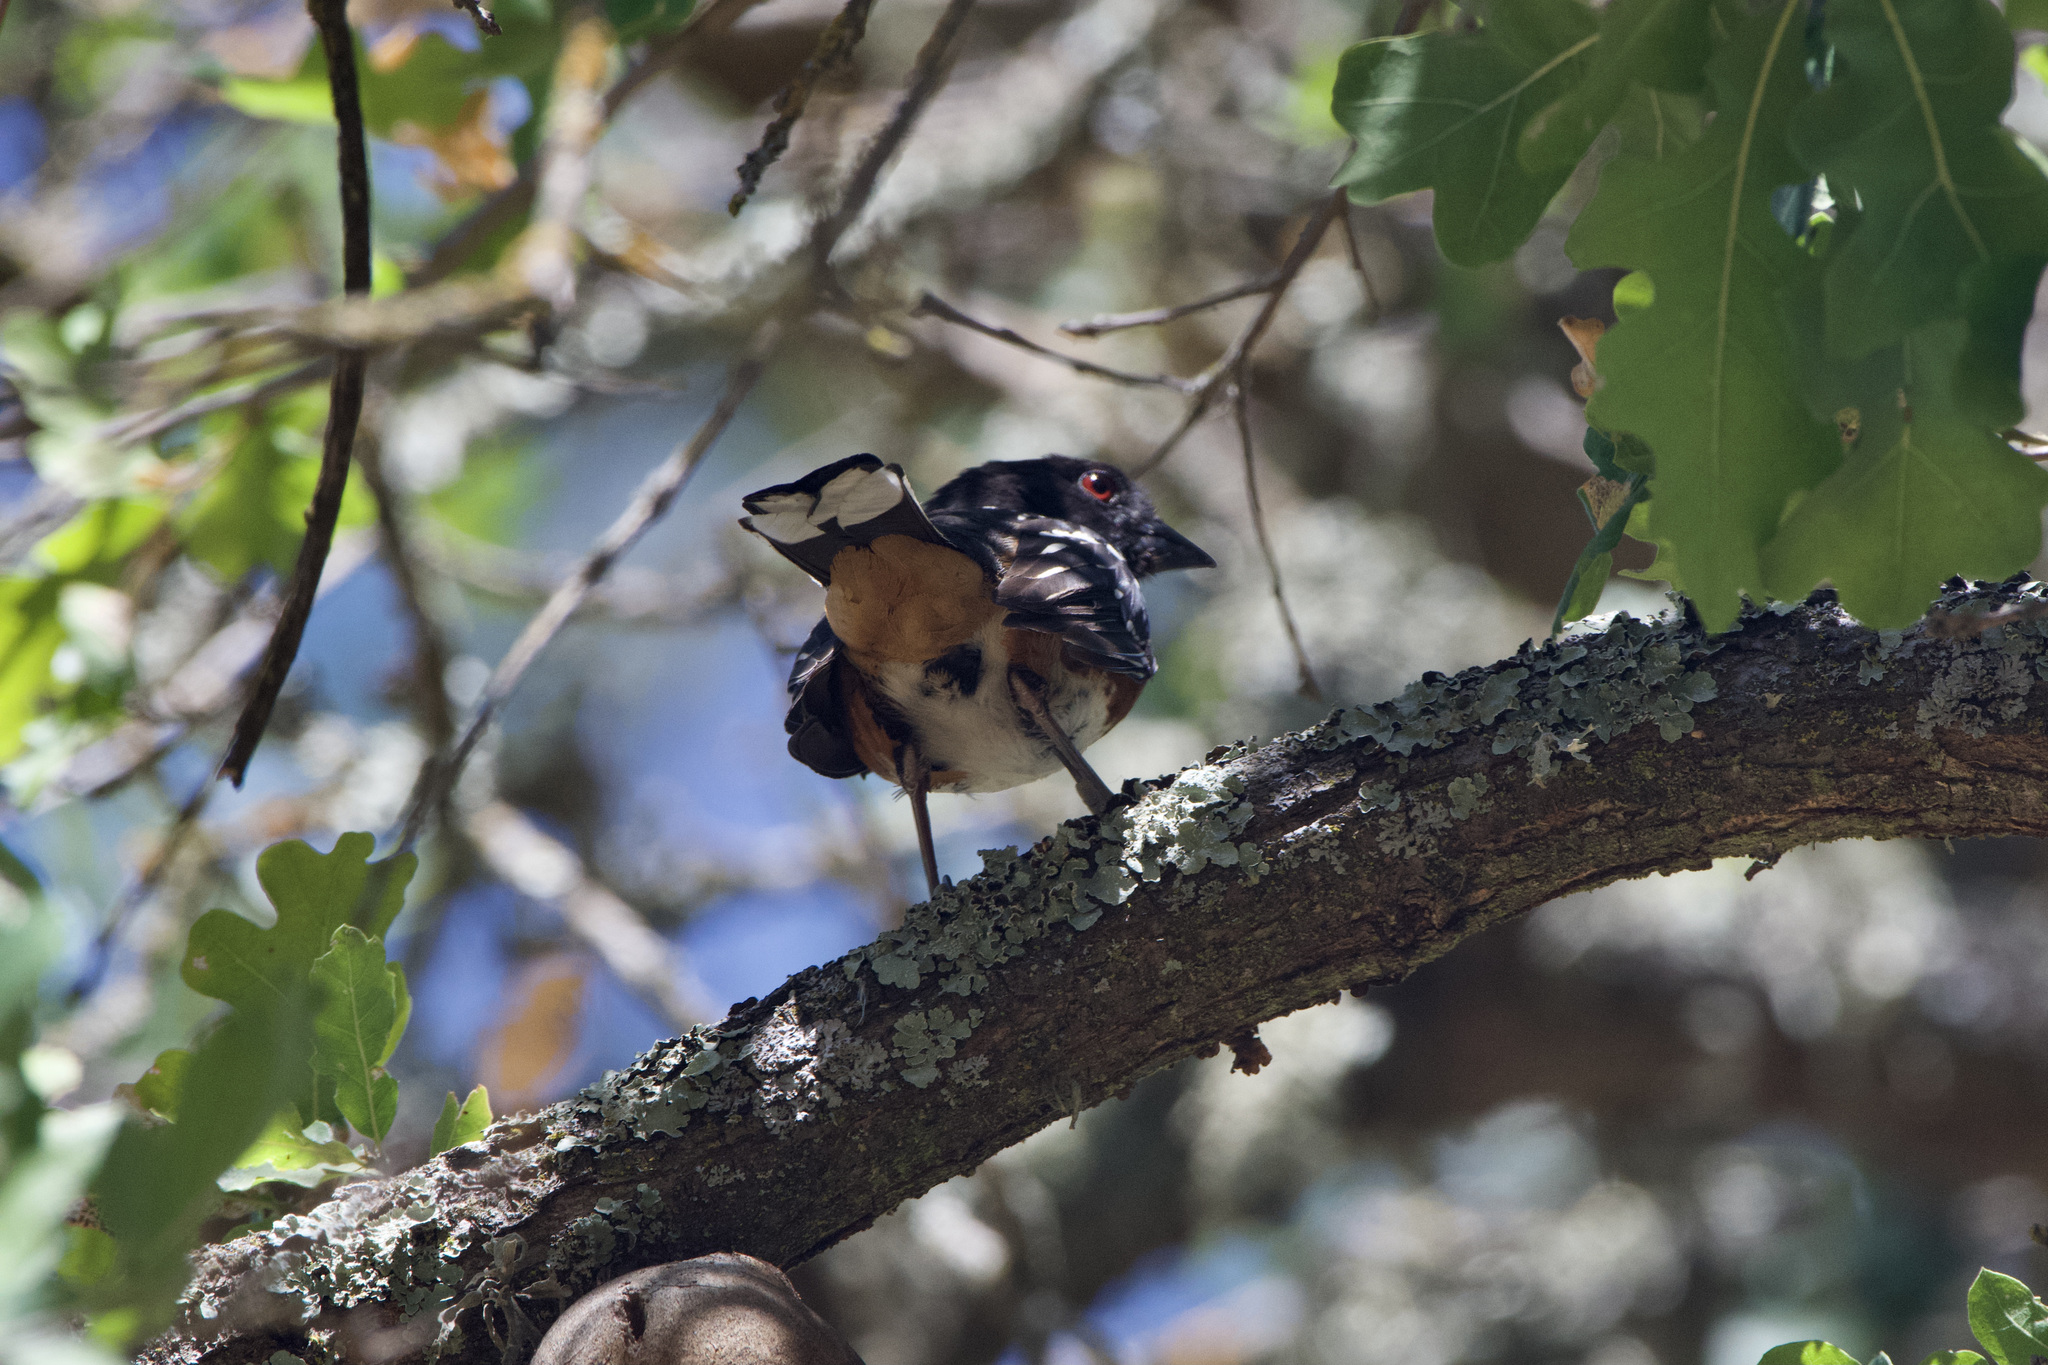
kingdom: Animalia
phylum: Chordata
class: Aves
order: Passeriformes
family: Passerellidae
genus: Pipilo
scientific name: Pipilo maculatus
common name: Spotted towhee
